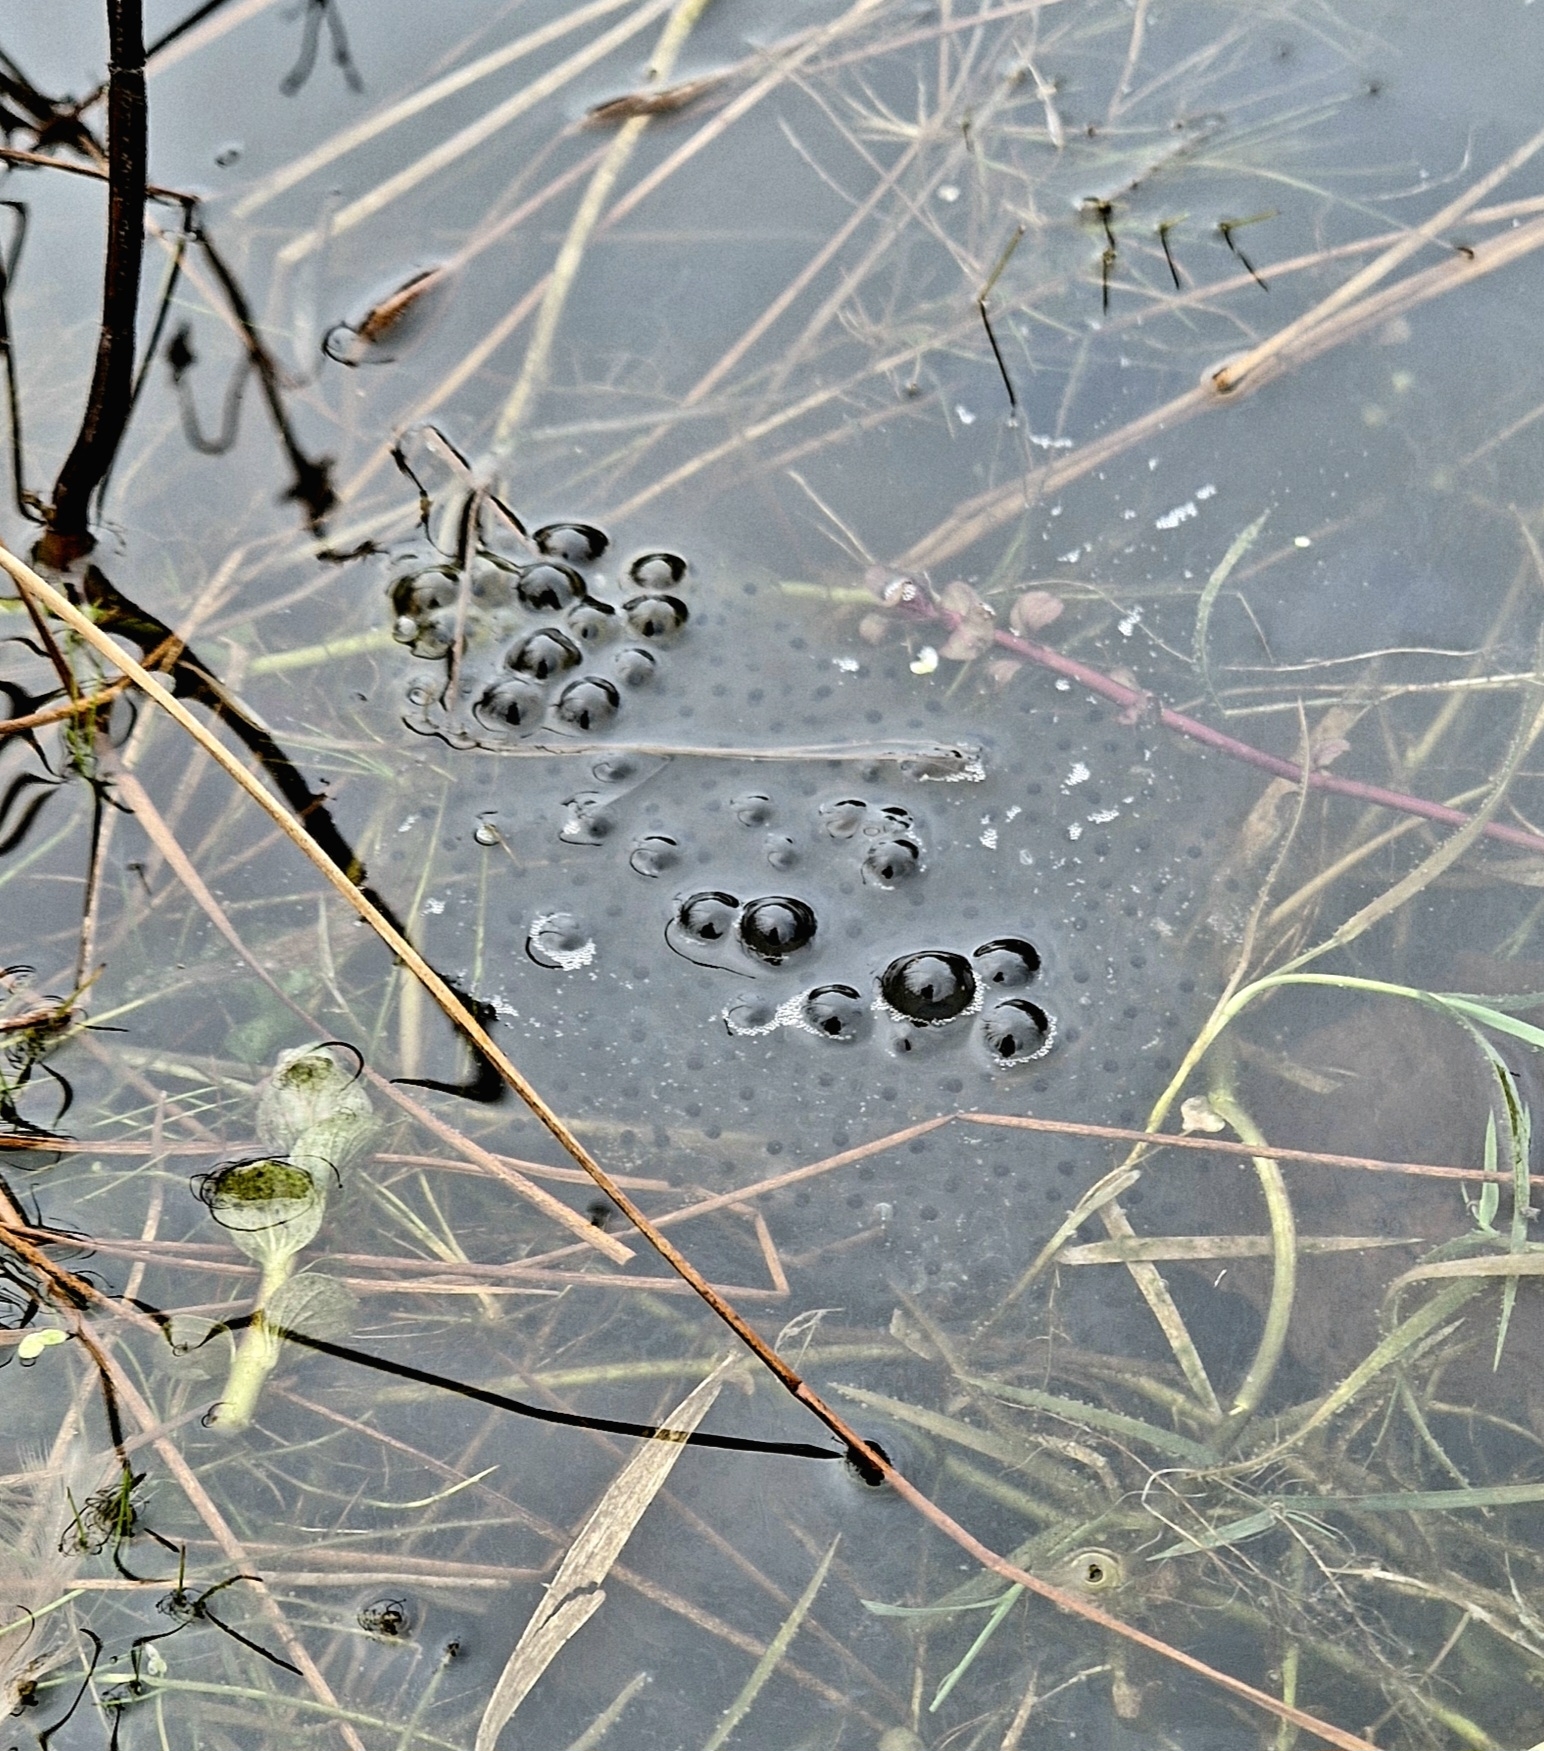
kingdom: Animalia
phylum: Chordata
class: Amphibia
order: Anura
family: Ranidae
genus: Rana
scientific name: Rana temporaria
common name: Common frog
